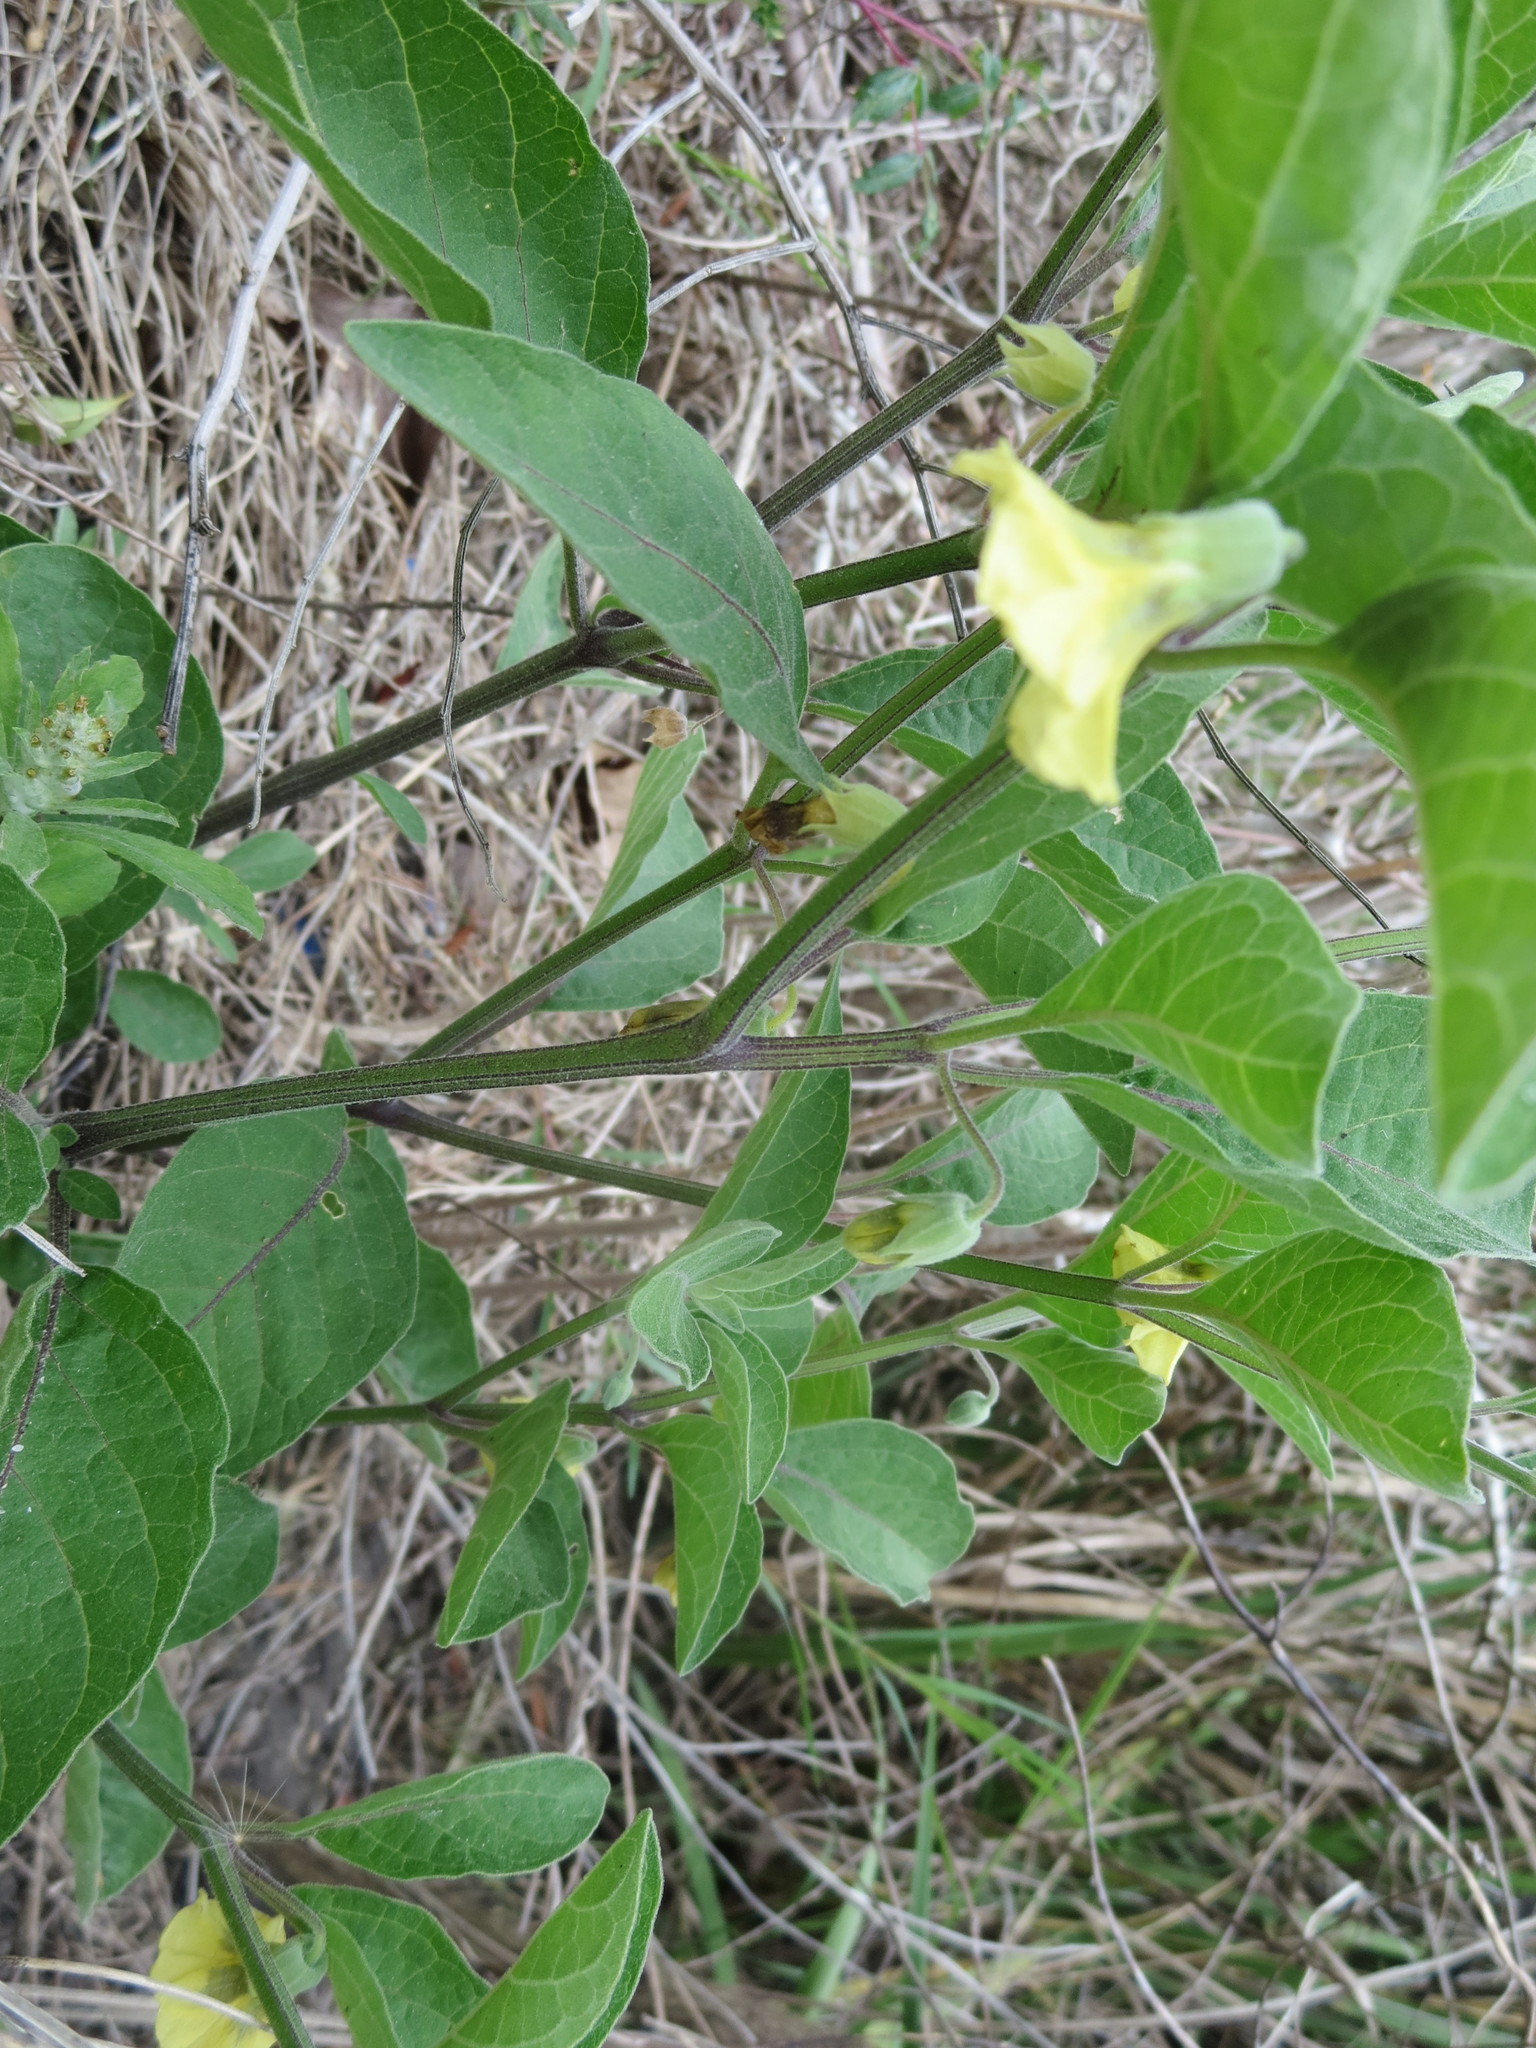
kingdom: Plantae
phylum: Tracheophyta
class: Magnoliopsida
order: Solanales
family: Solanaceae
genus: Physalis
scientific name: Physalis walteri
